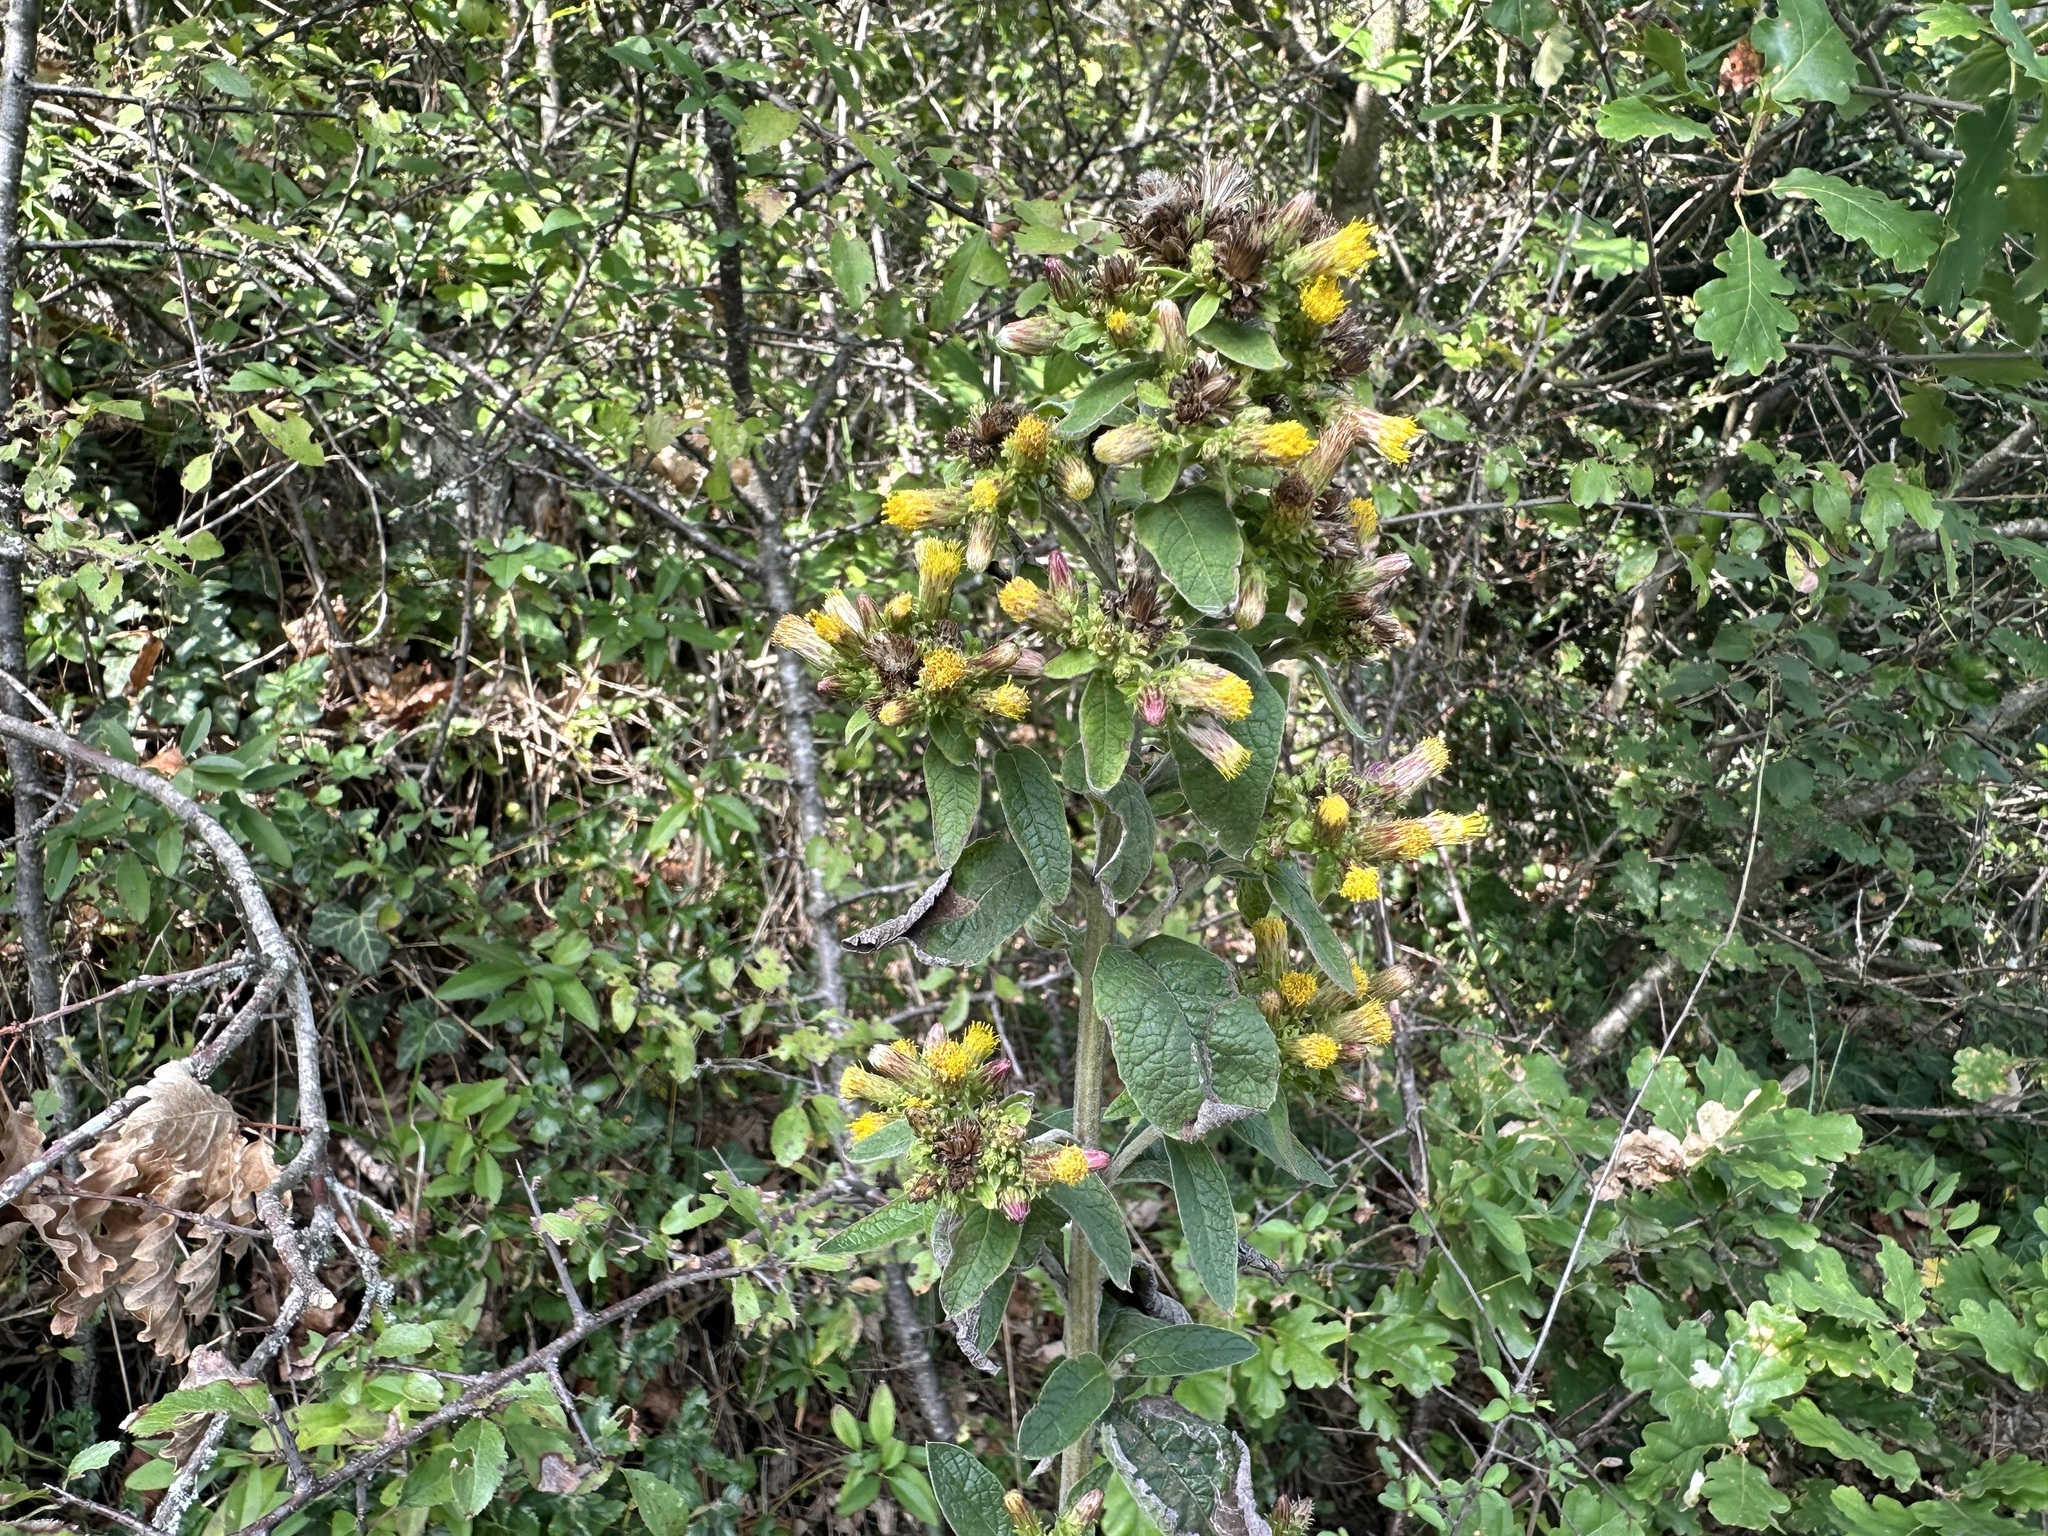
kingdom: Plantae
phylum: Tracheophyta
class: Magnoliopsida
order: Asterales
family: Asteraceae
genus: Pentanema
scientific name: Pentanema squarrosum
